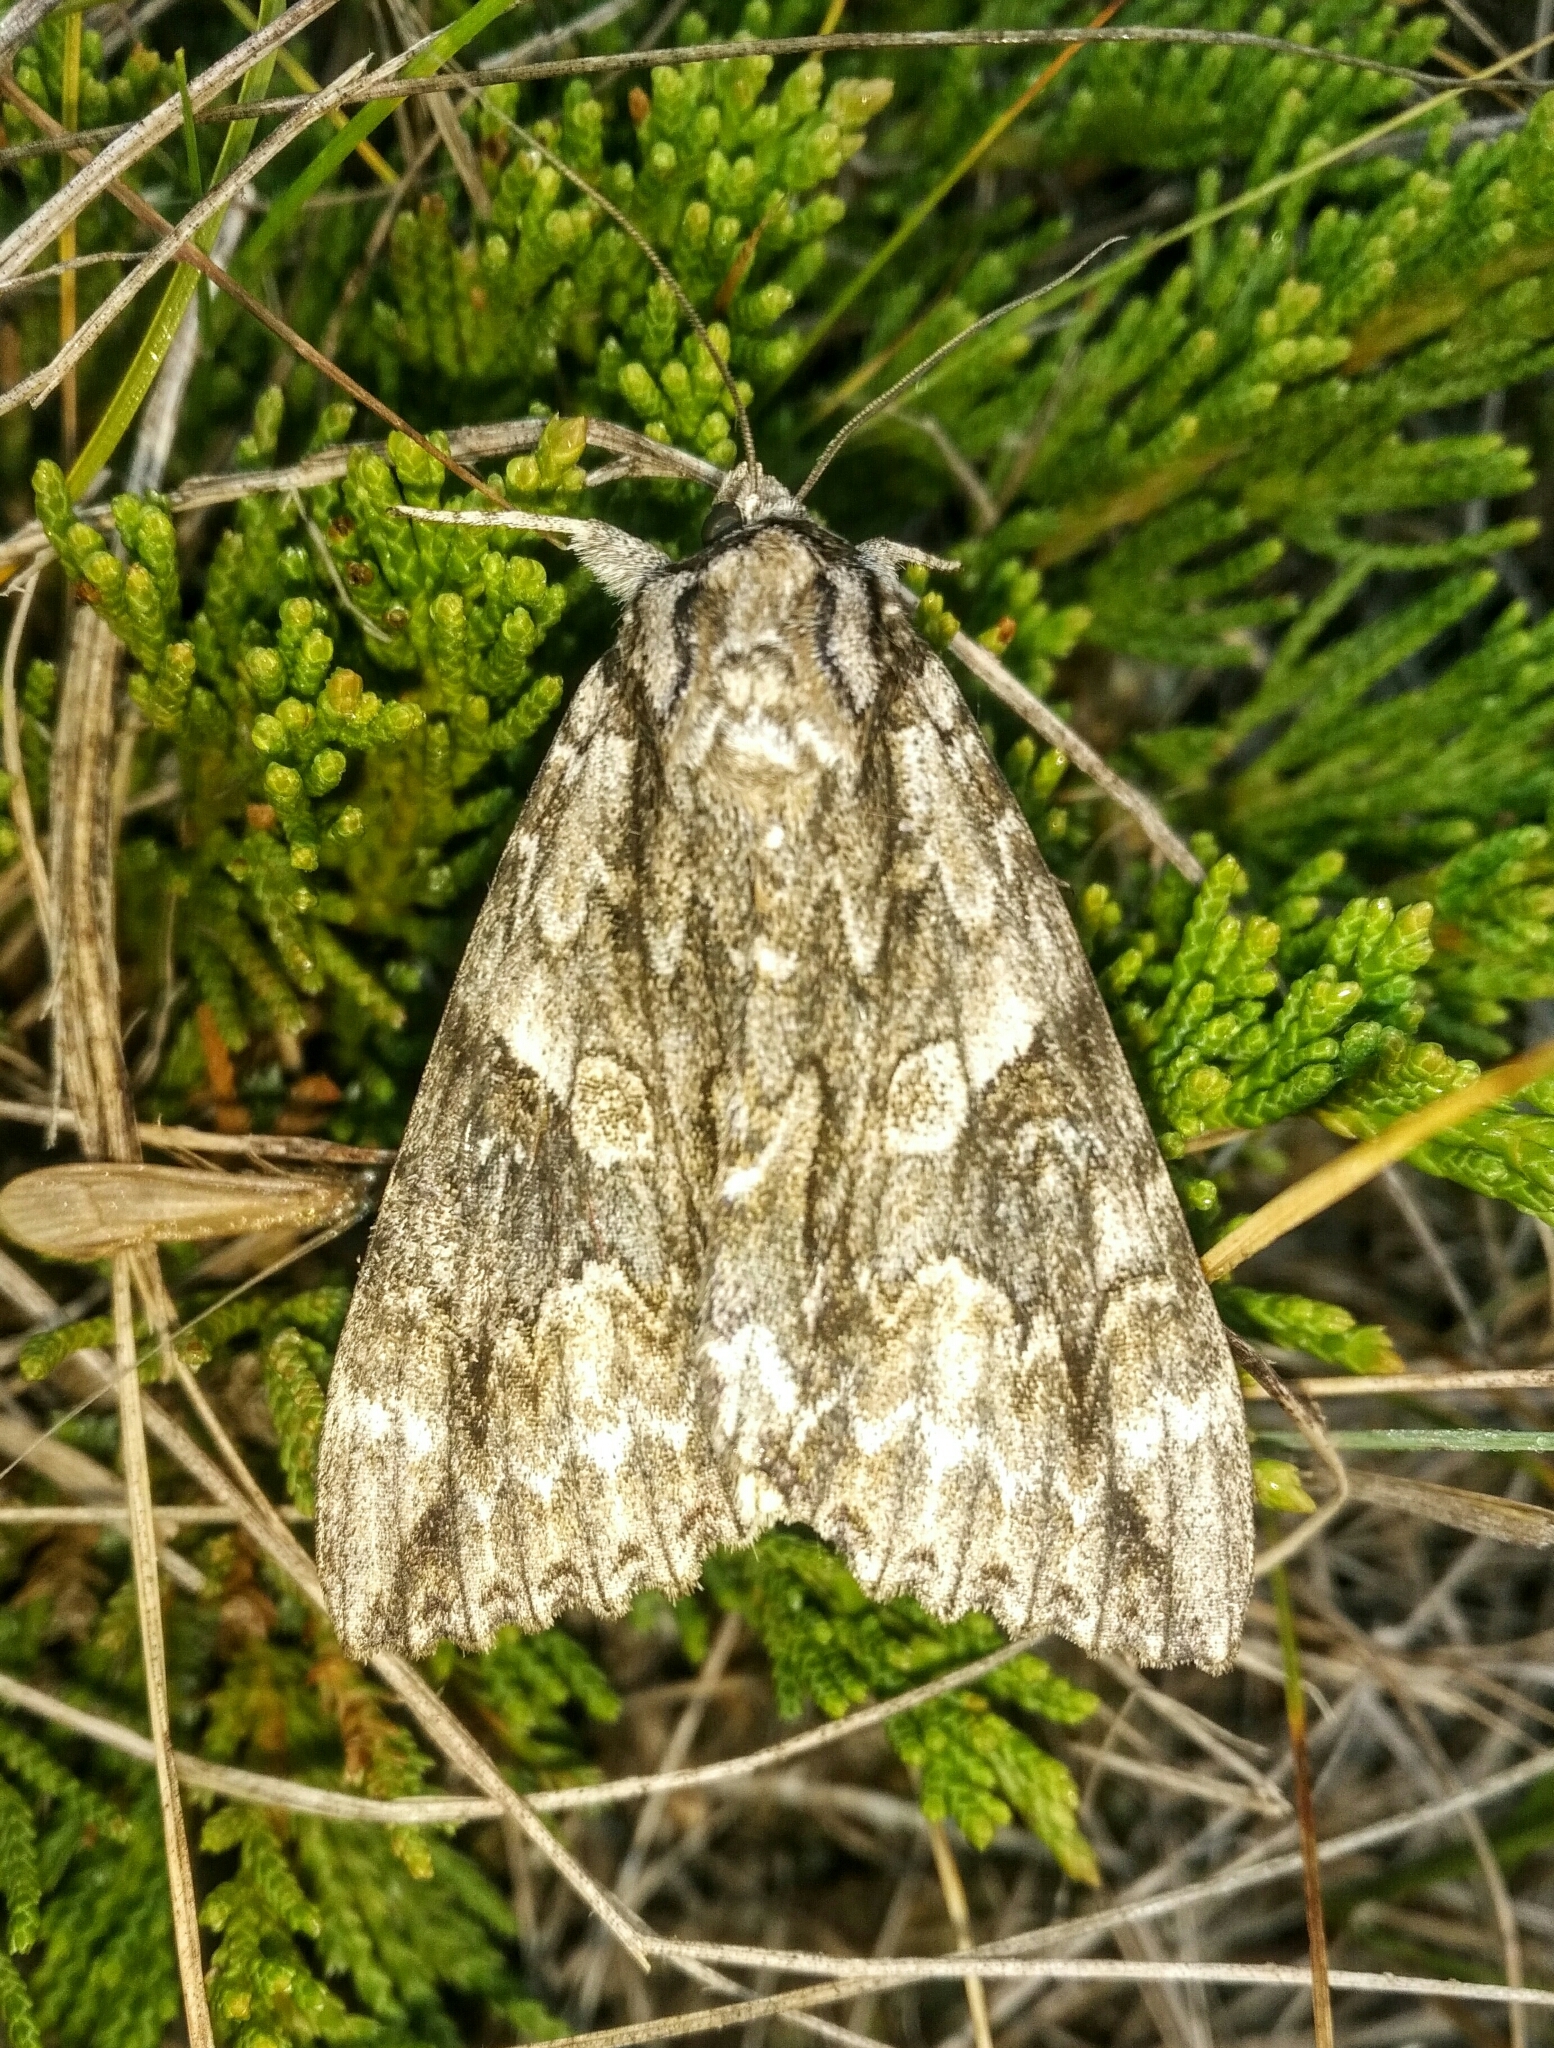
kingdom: Animalia
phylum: Arthropoda
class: Insecta
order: Lepidoptera
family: Erebidae
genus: Catocala
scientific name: Catocala parta
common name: Mother underwing
